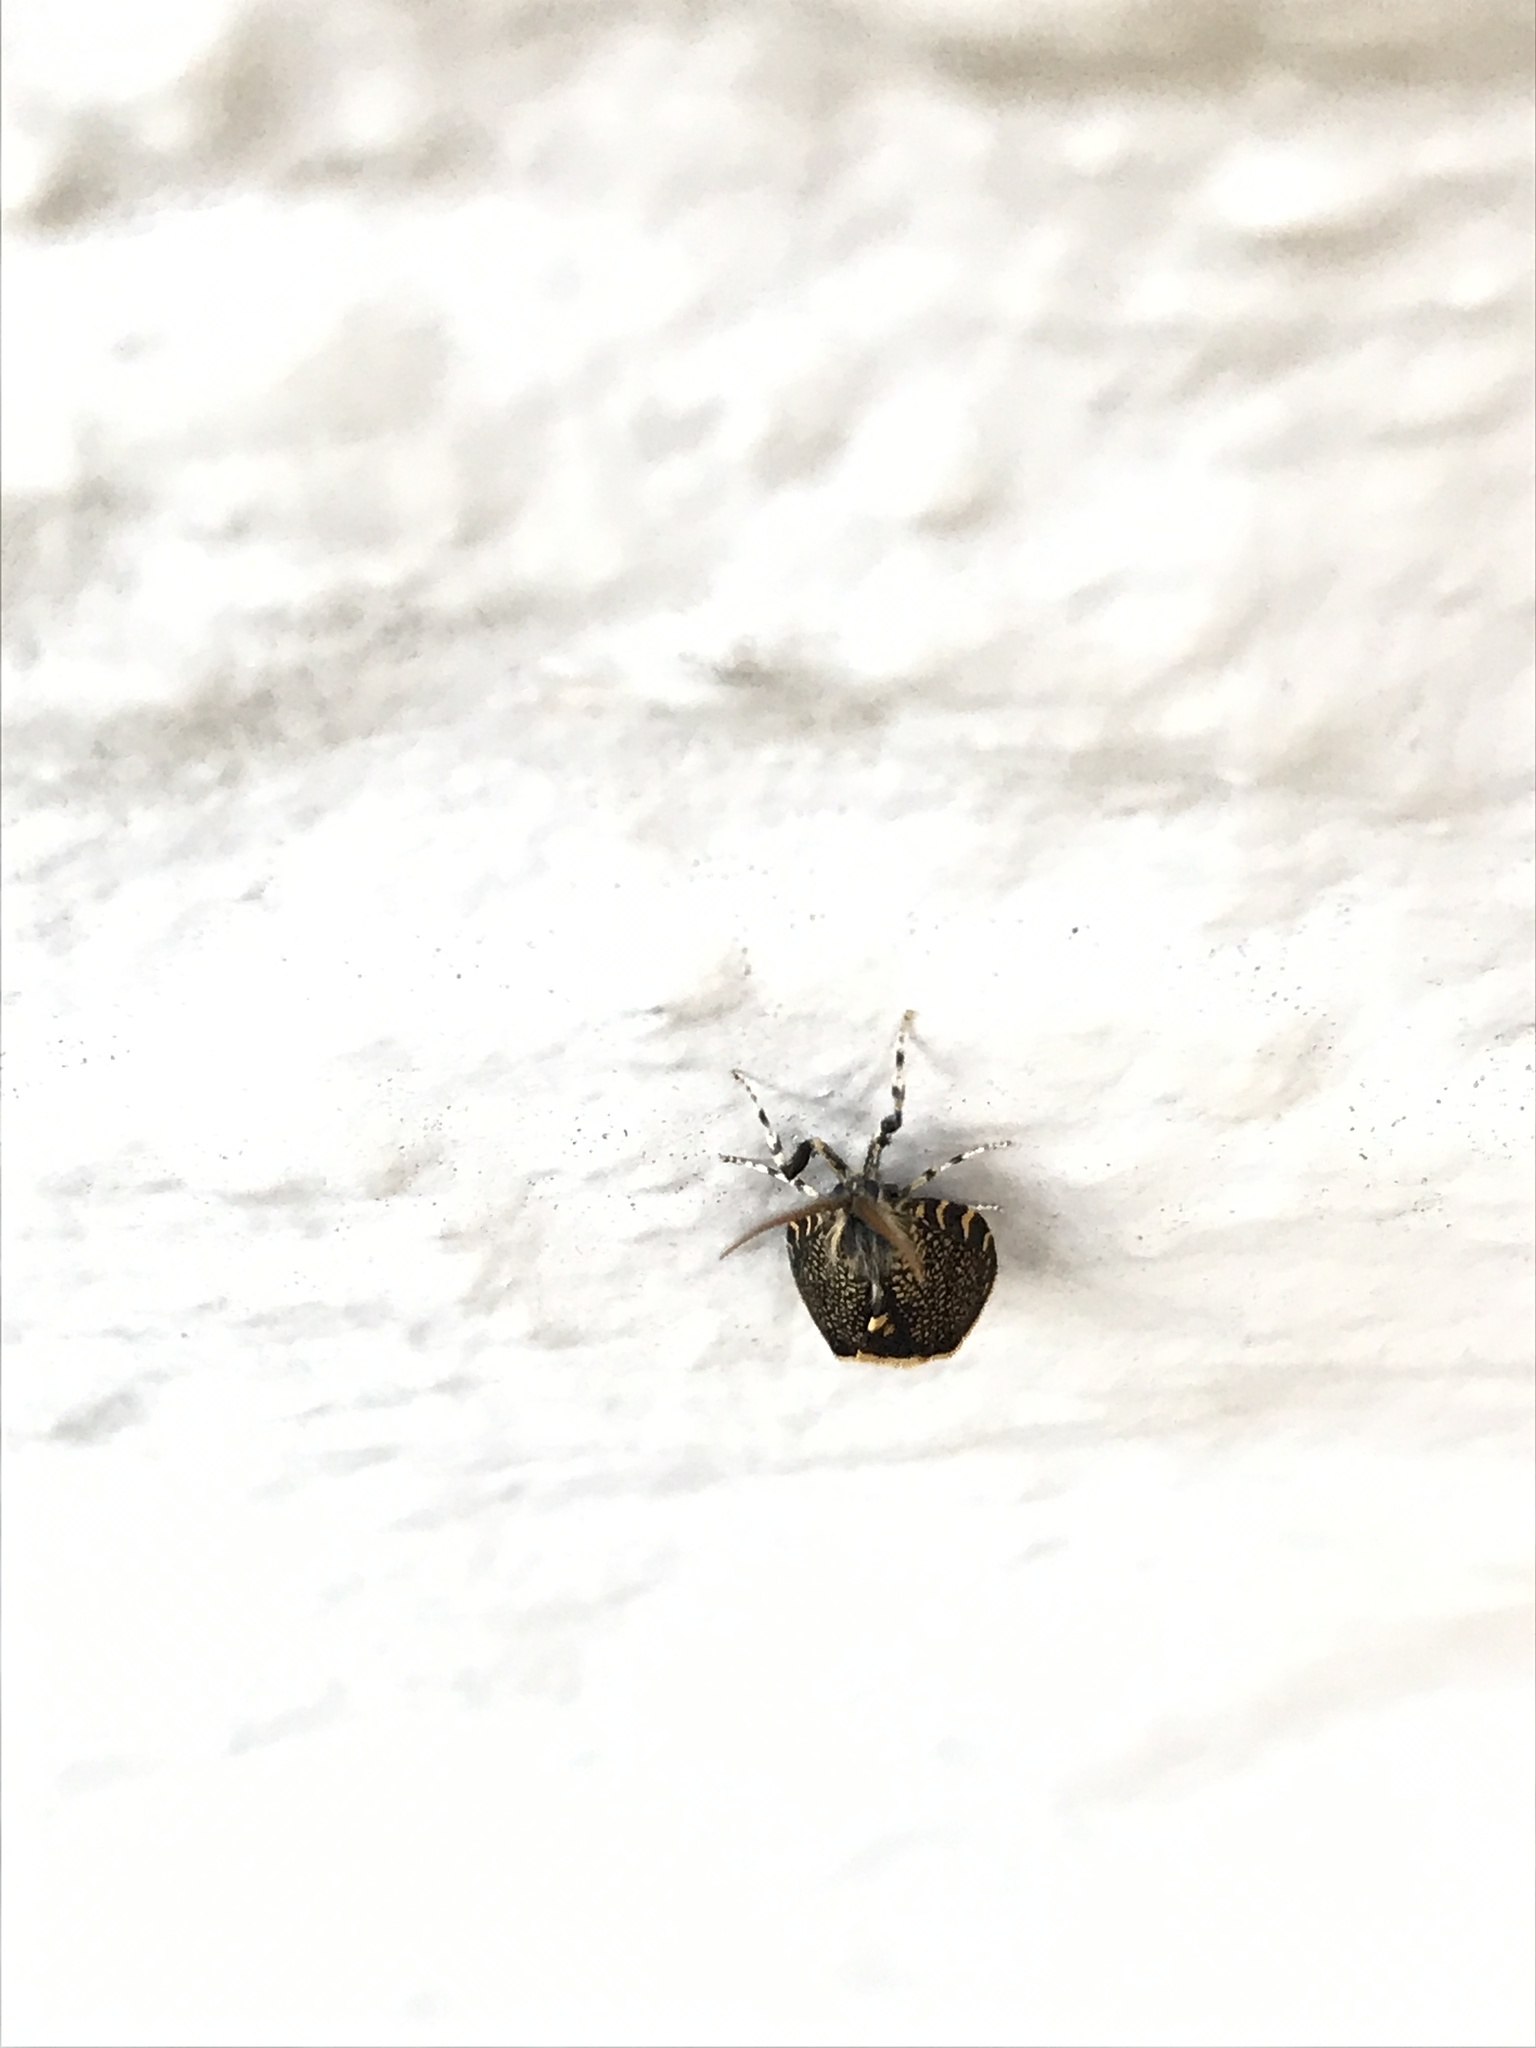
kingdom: Animalia
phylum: Arthropoda
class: Insecta
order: Lepidoptera
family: Psychidae
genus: Cebysa
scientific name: Cebysa leucotelus
